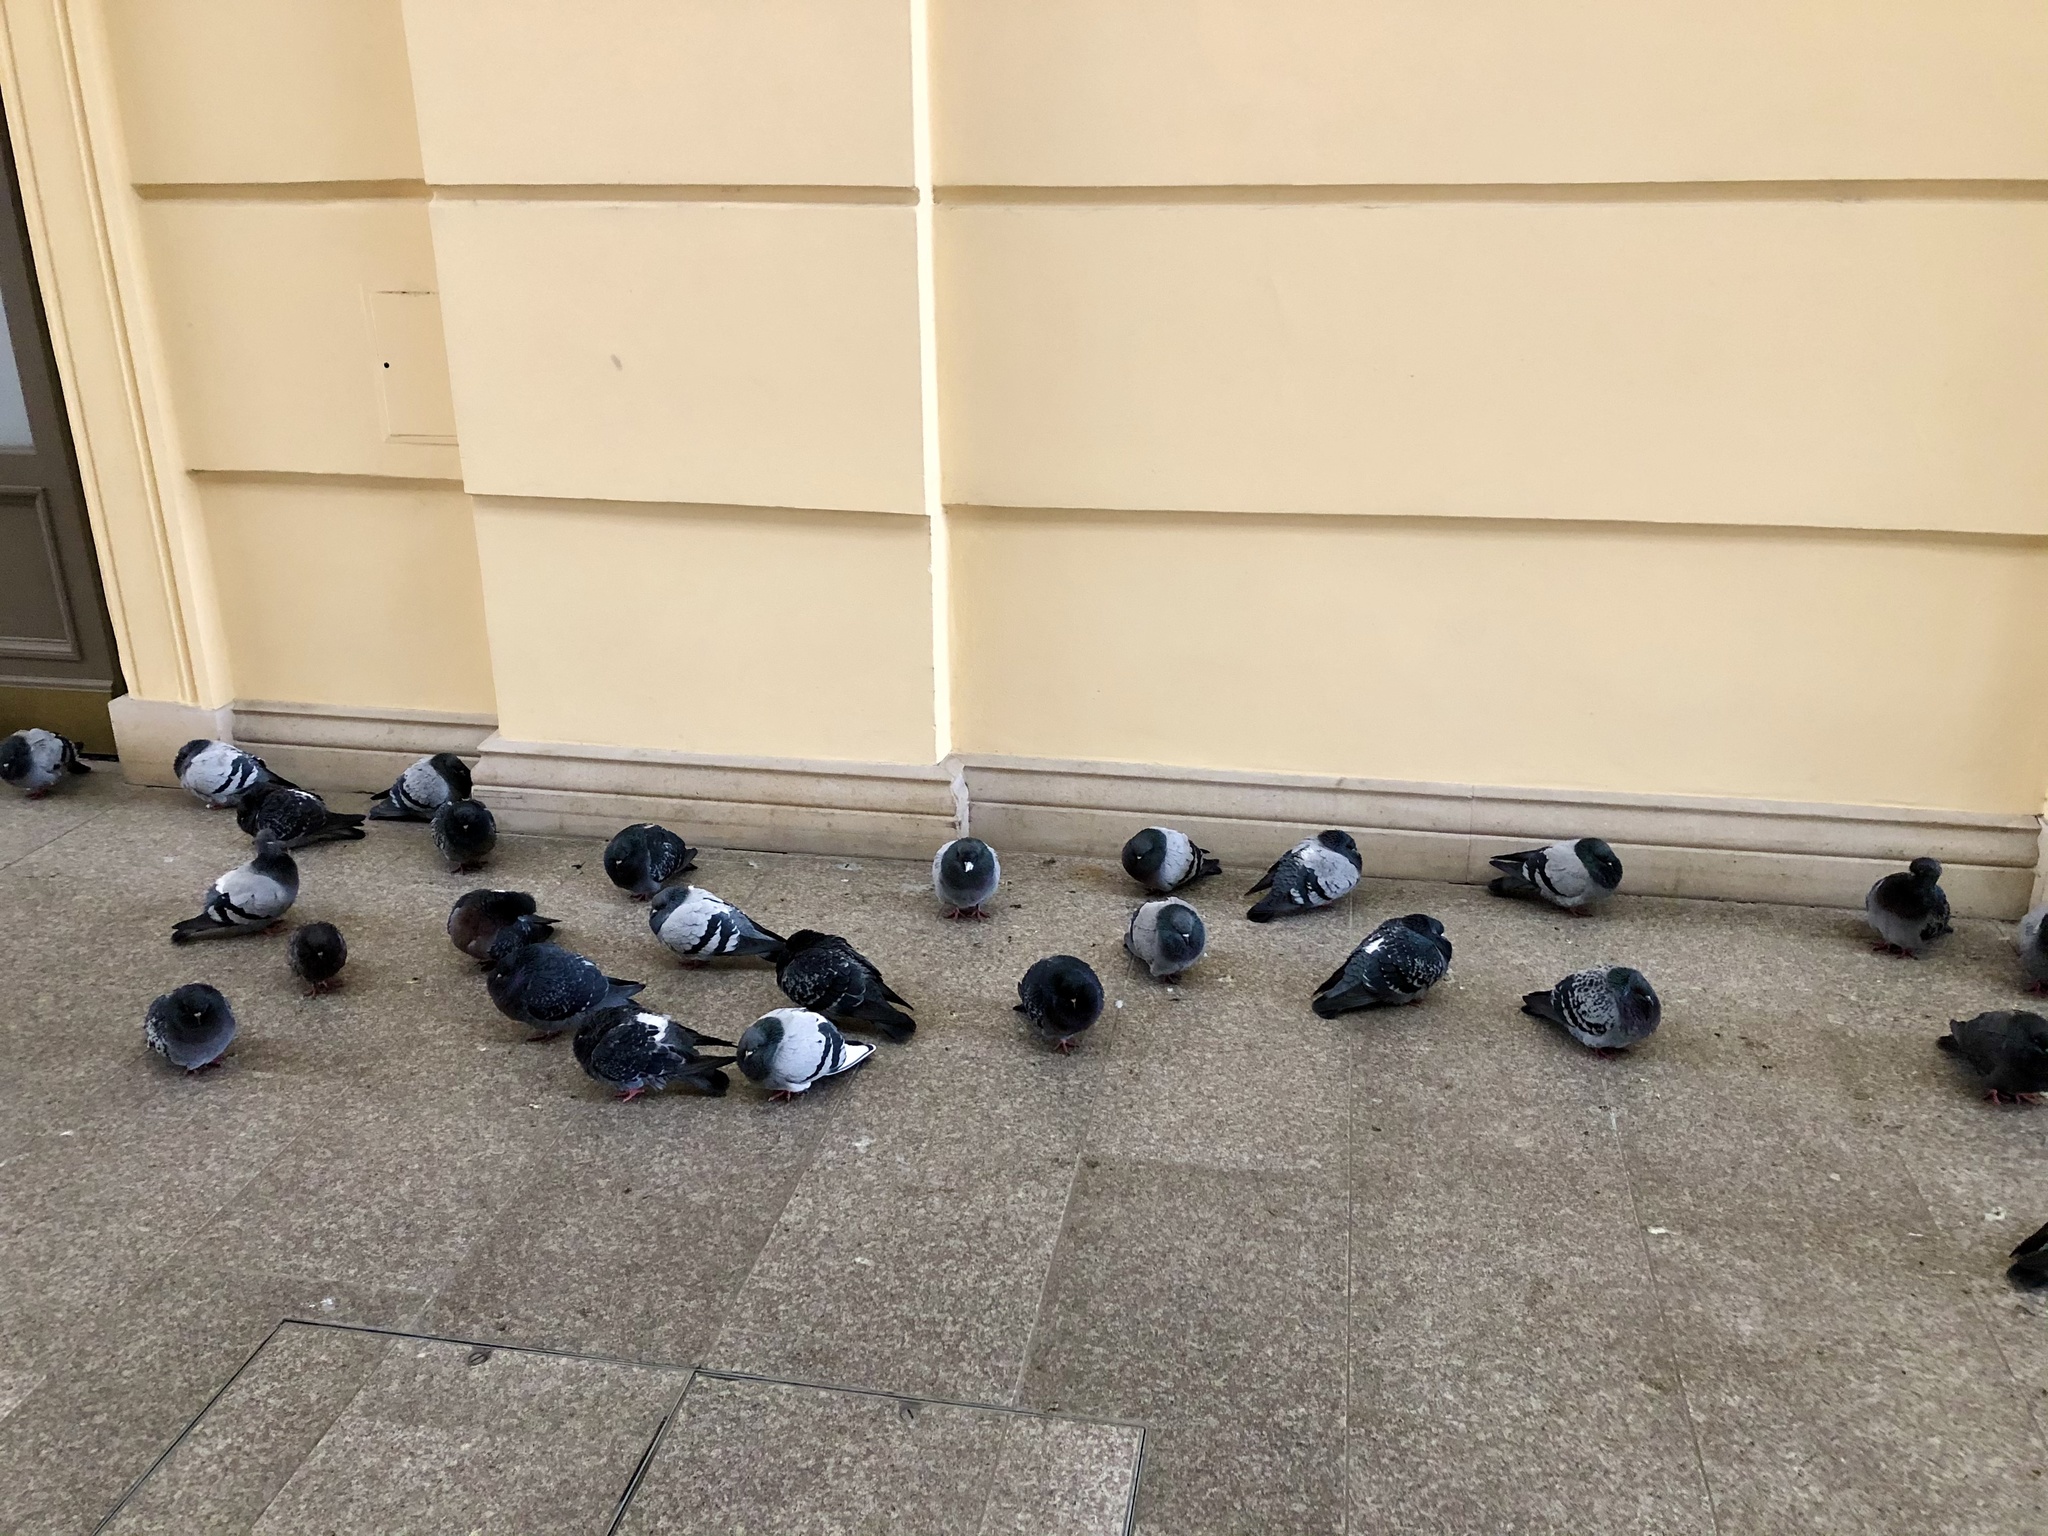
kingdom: Animalia
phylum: Chordata
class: Aves
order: Columbiformes
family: Columbidae
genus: Columba
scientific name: Columba livia
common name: Rock pigeon
